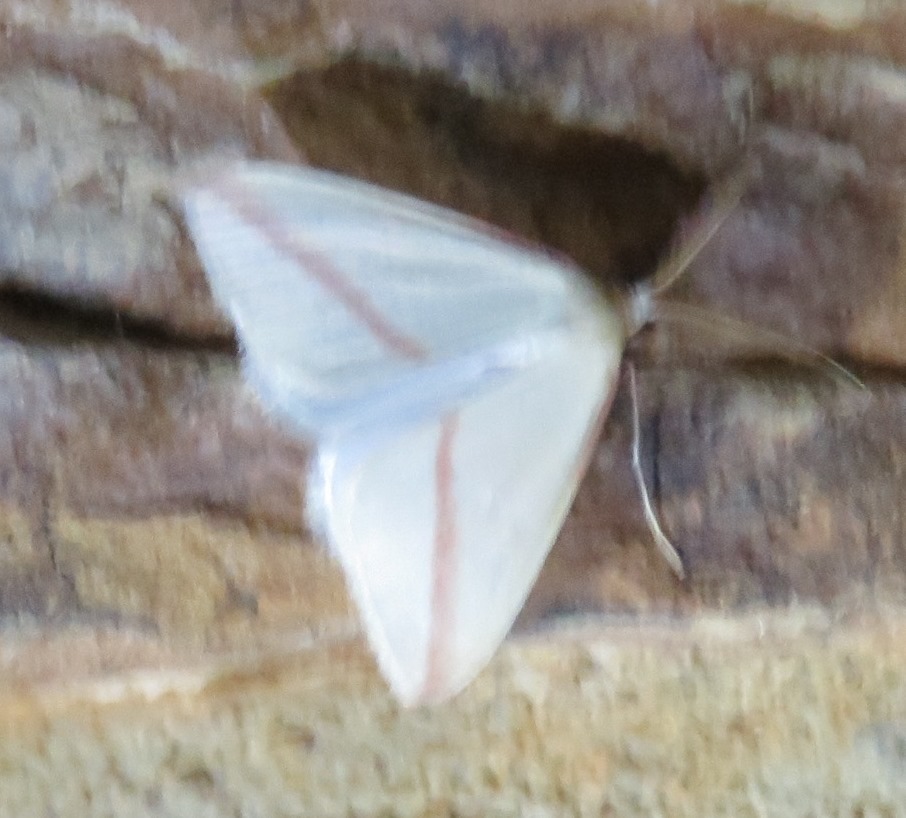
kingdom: Animalia
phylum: Arthropoda
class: Insecta
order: Lepidoptera
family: Geometridae
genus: Rhodometra
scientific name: Rhodometra sacraria
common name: Vestal
